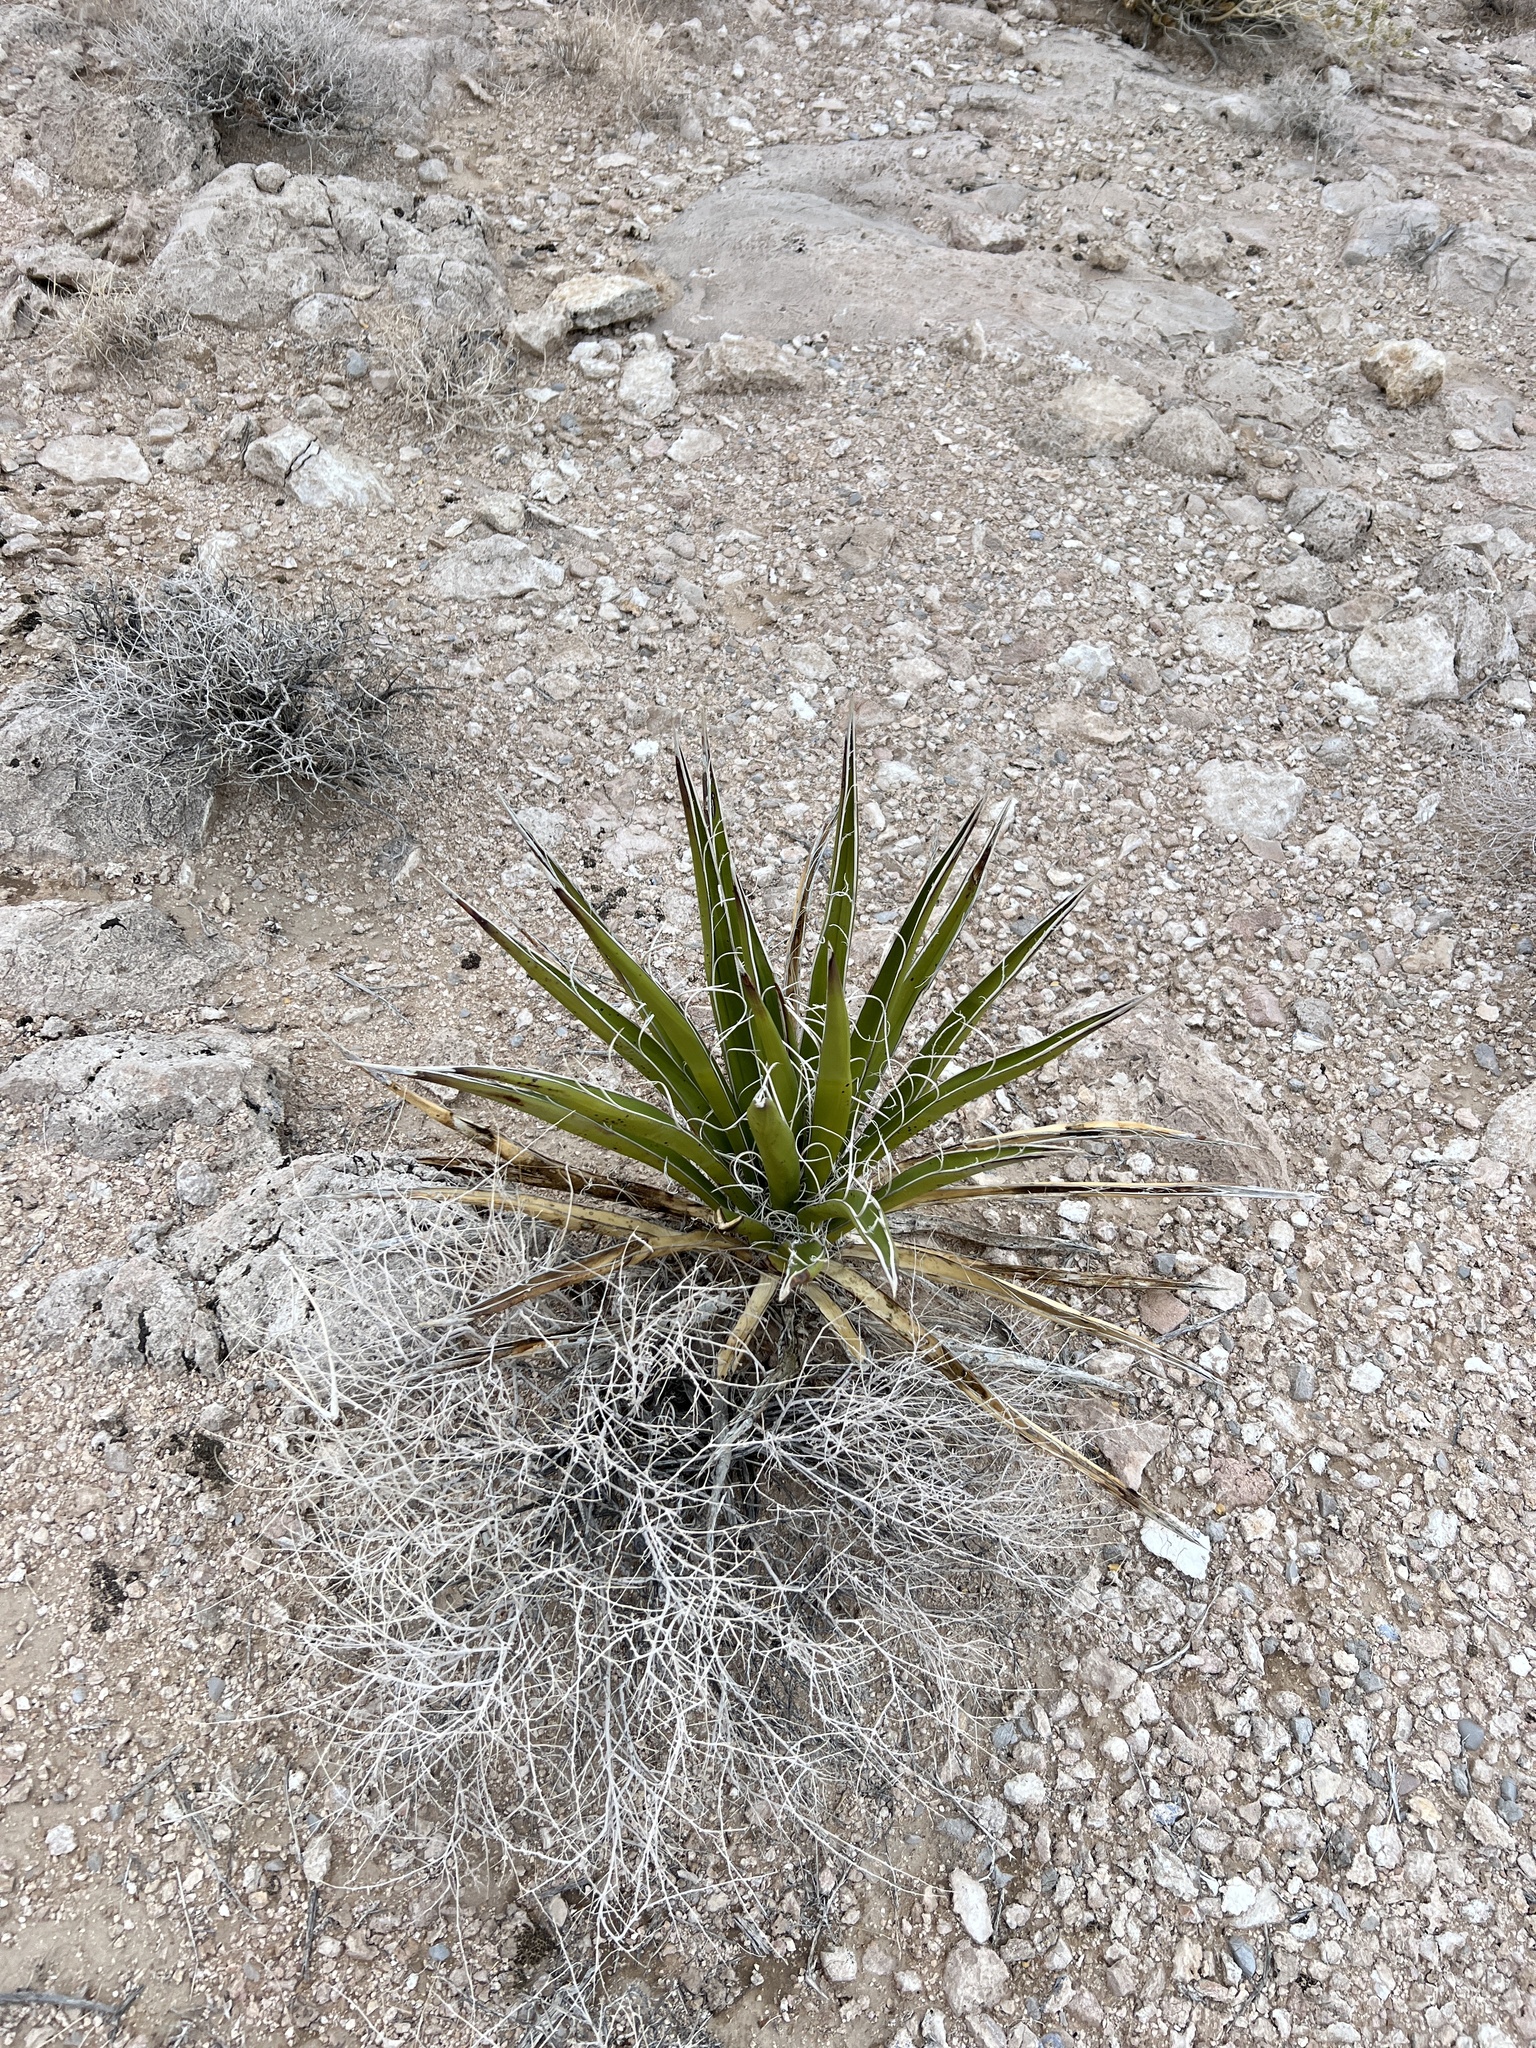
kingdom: Plantae
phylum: Tracheophyta
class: Liliopsida
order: Asparagales
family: Asparagaceae
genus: Yucca
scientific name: Yucca baccata
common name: Banana yucca
